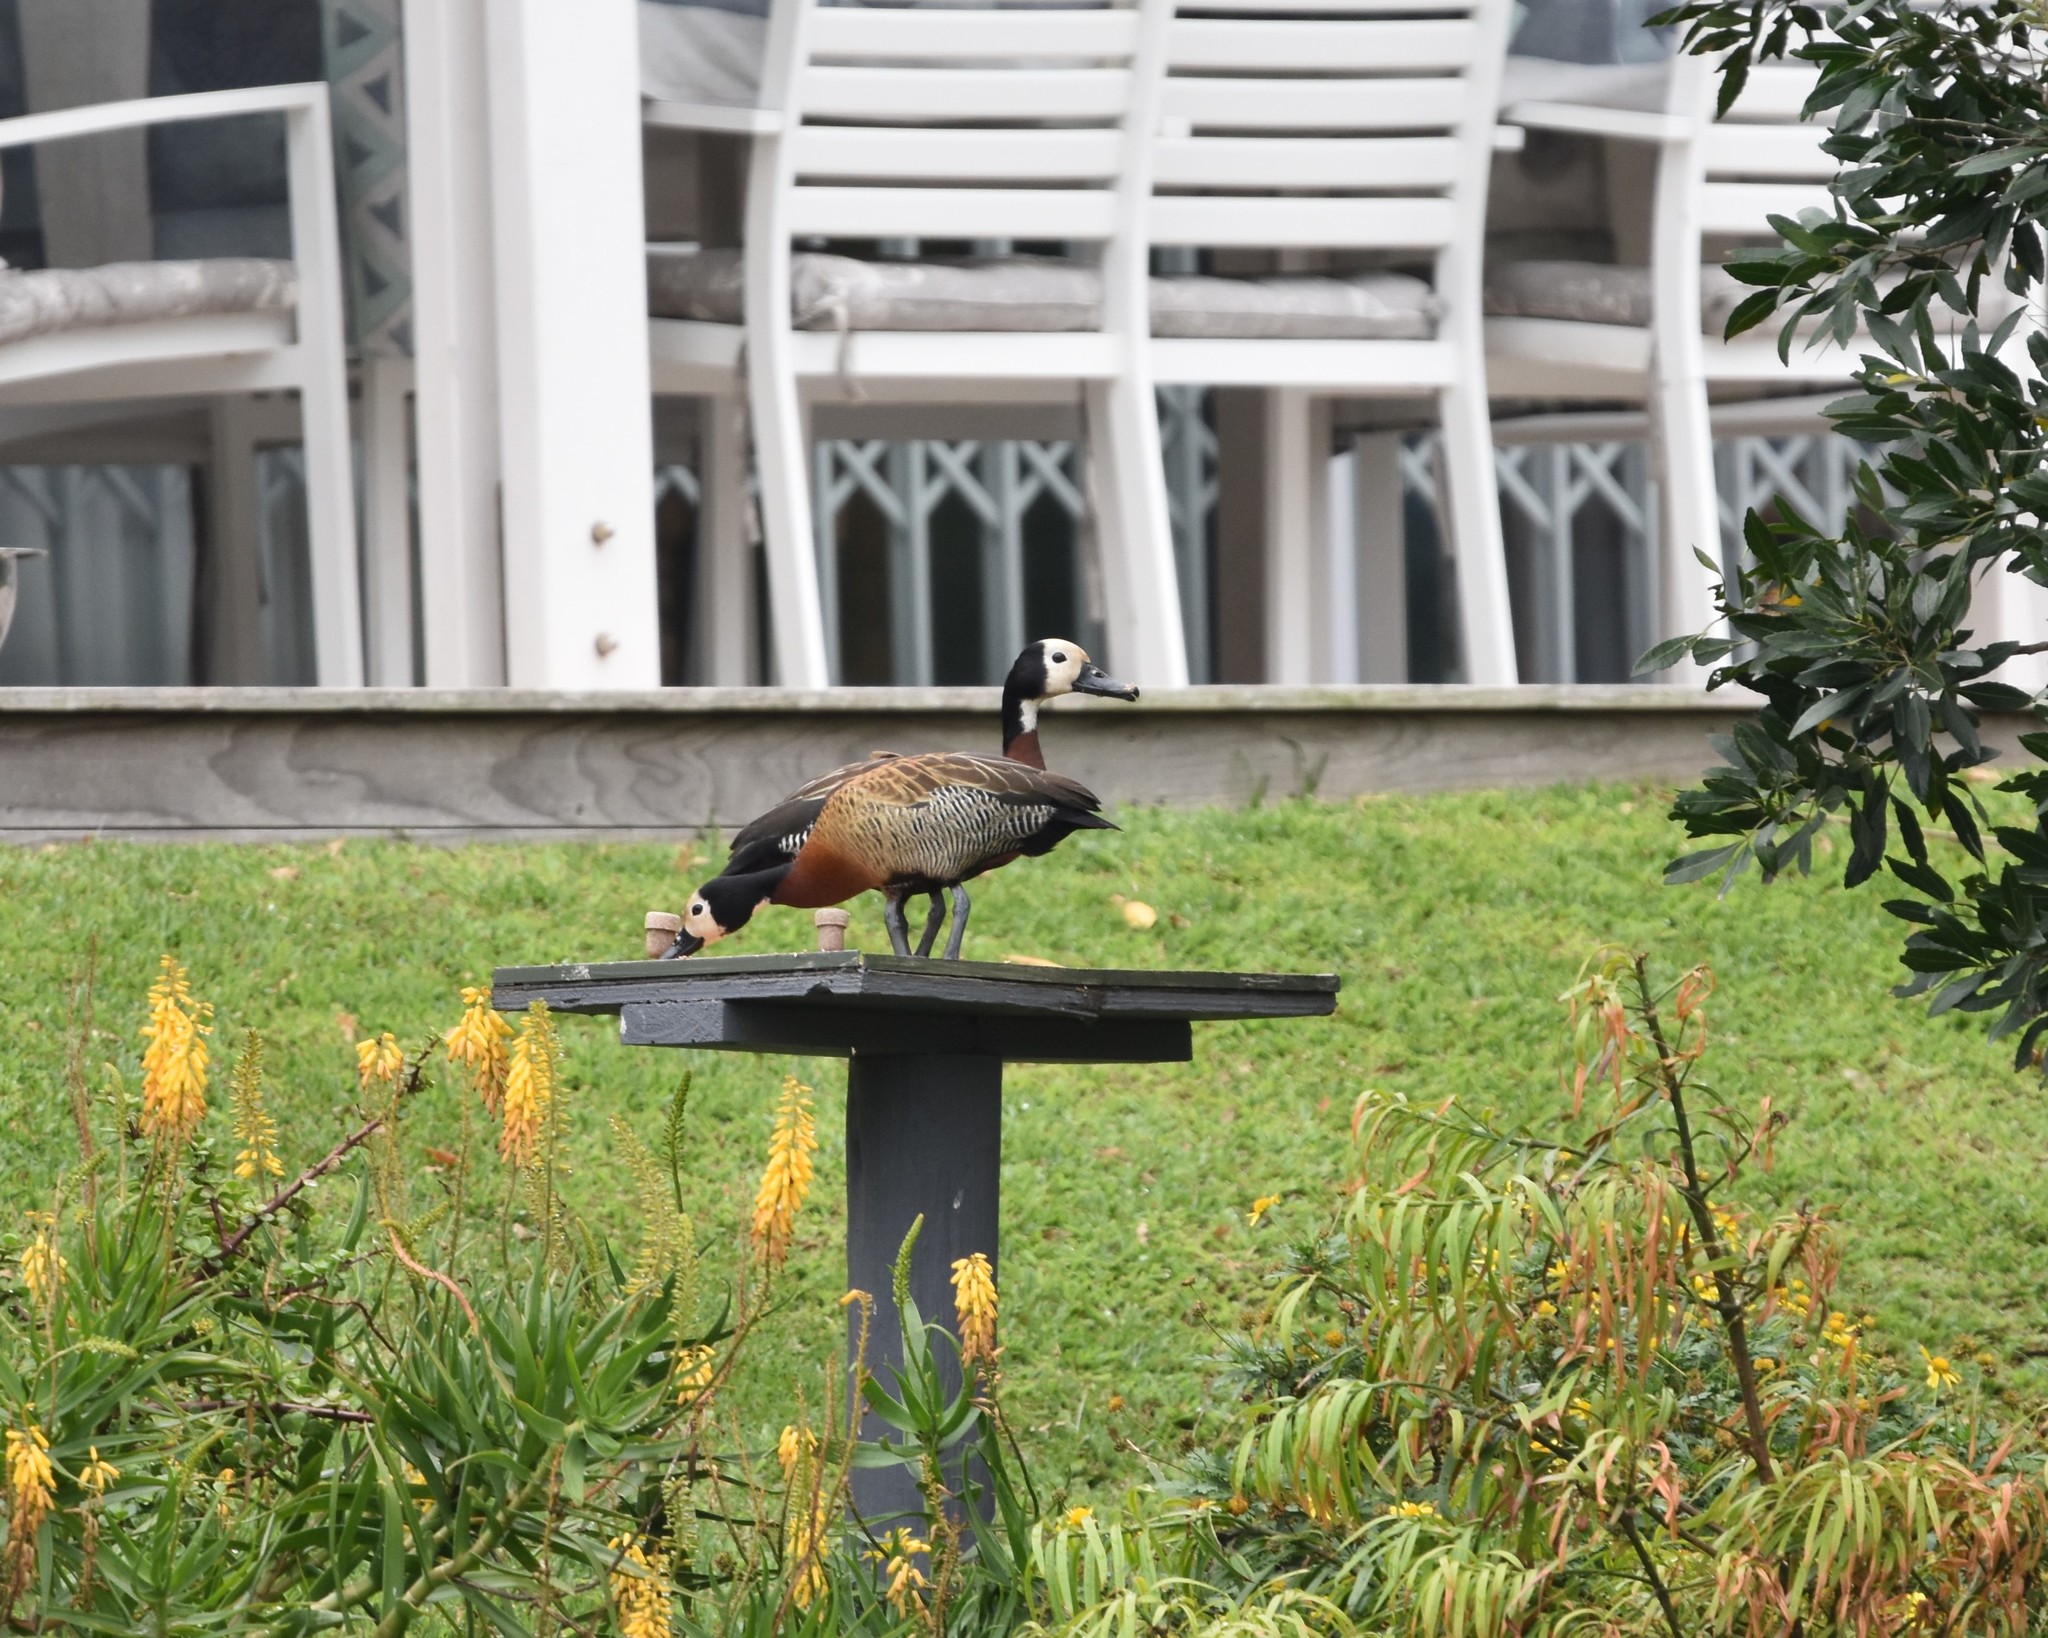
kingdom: Animalia
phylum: Chordata
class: Aves
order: Anseriformes
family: Anatidae
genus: Dendrocygna
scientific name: Dendrocygna viduata
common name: White-faced whistling duck
